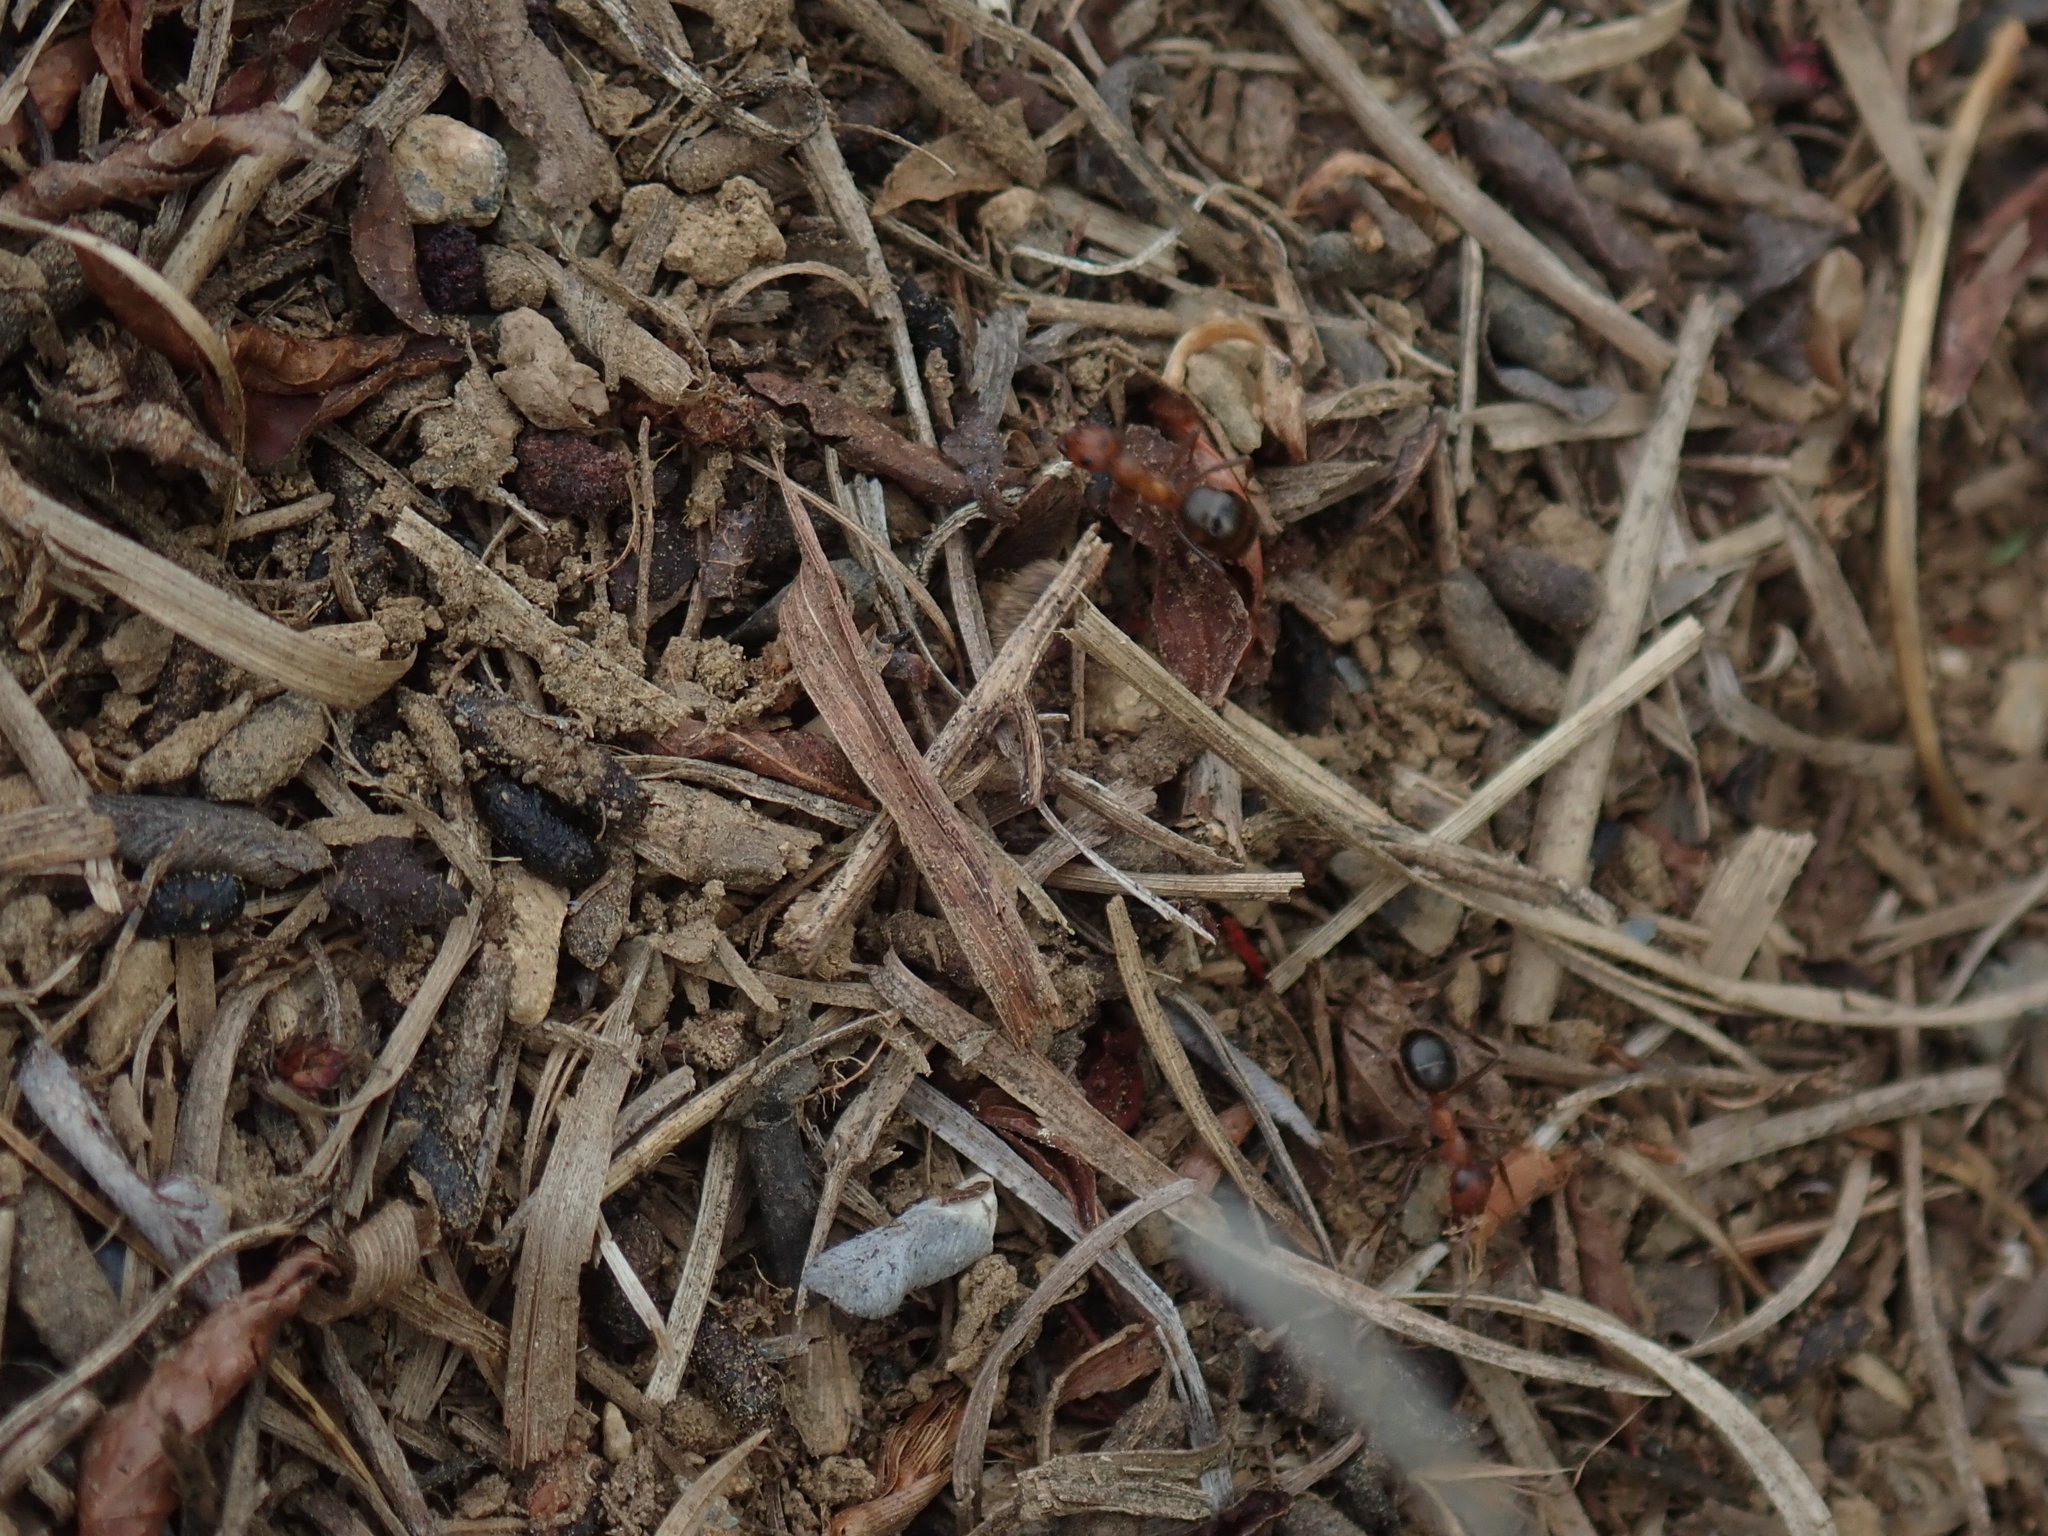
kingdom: Animalia
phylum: Arthropoda
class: Insecta
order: Hymenoptera
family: Formicidae
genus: Formica
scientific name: Formica exsectoides
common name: Allegheny mound ant
